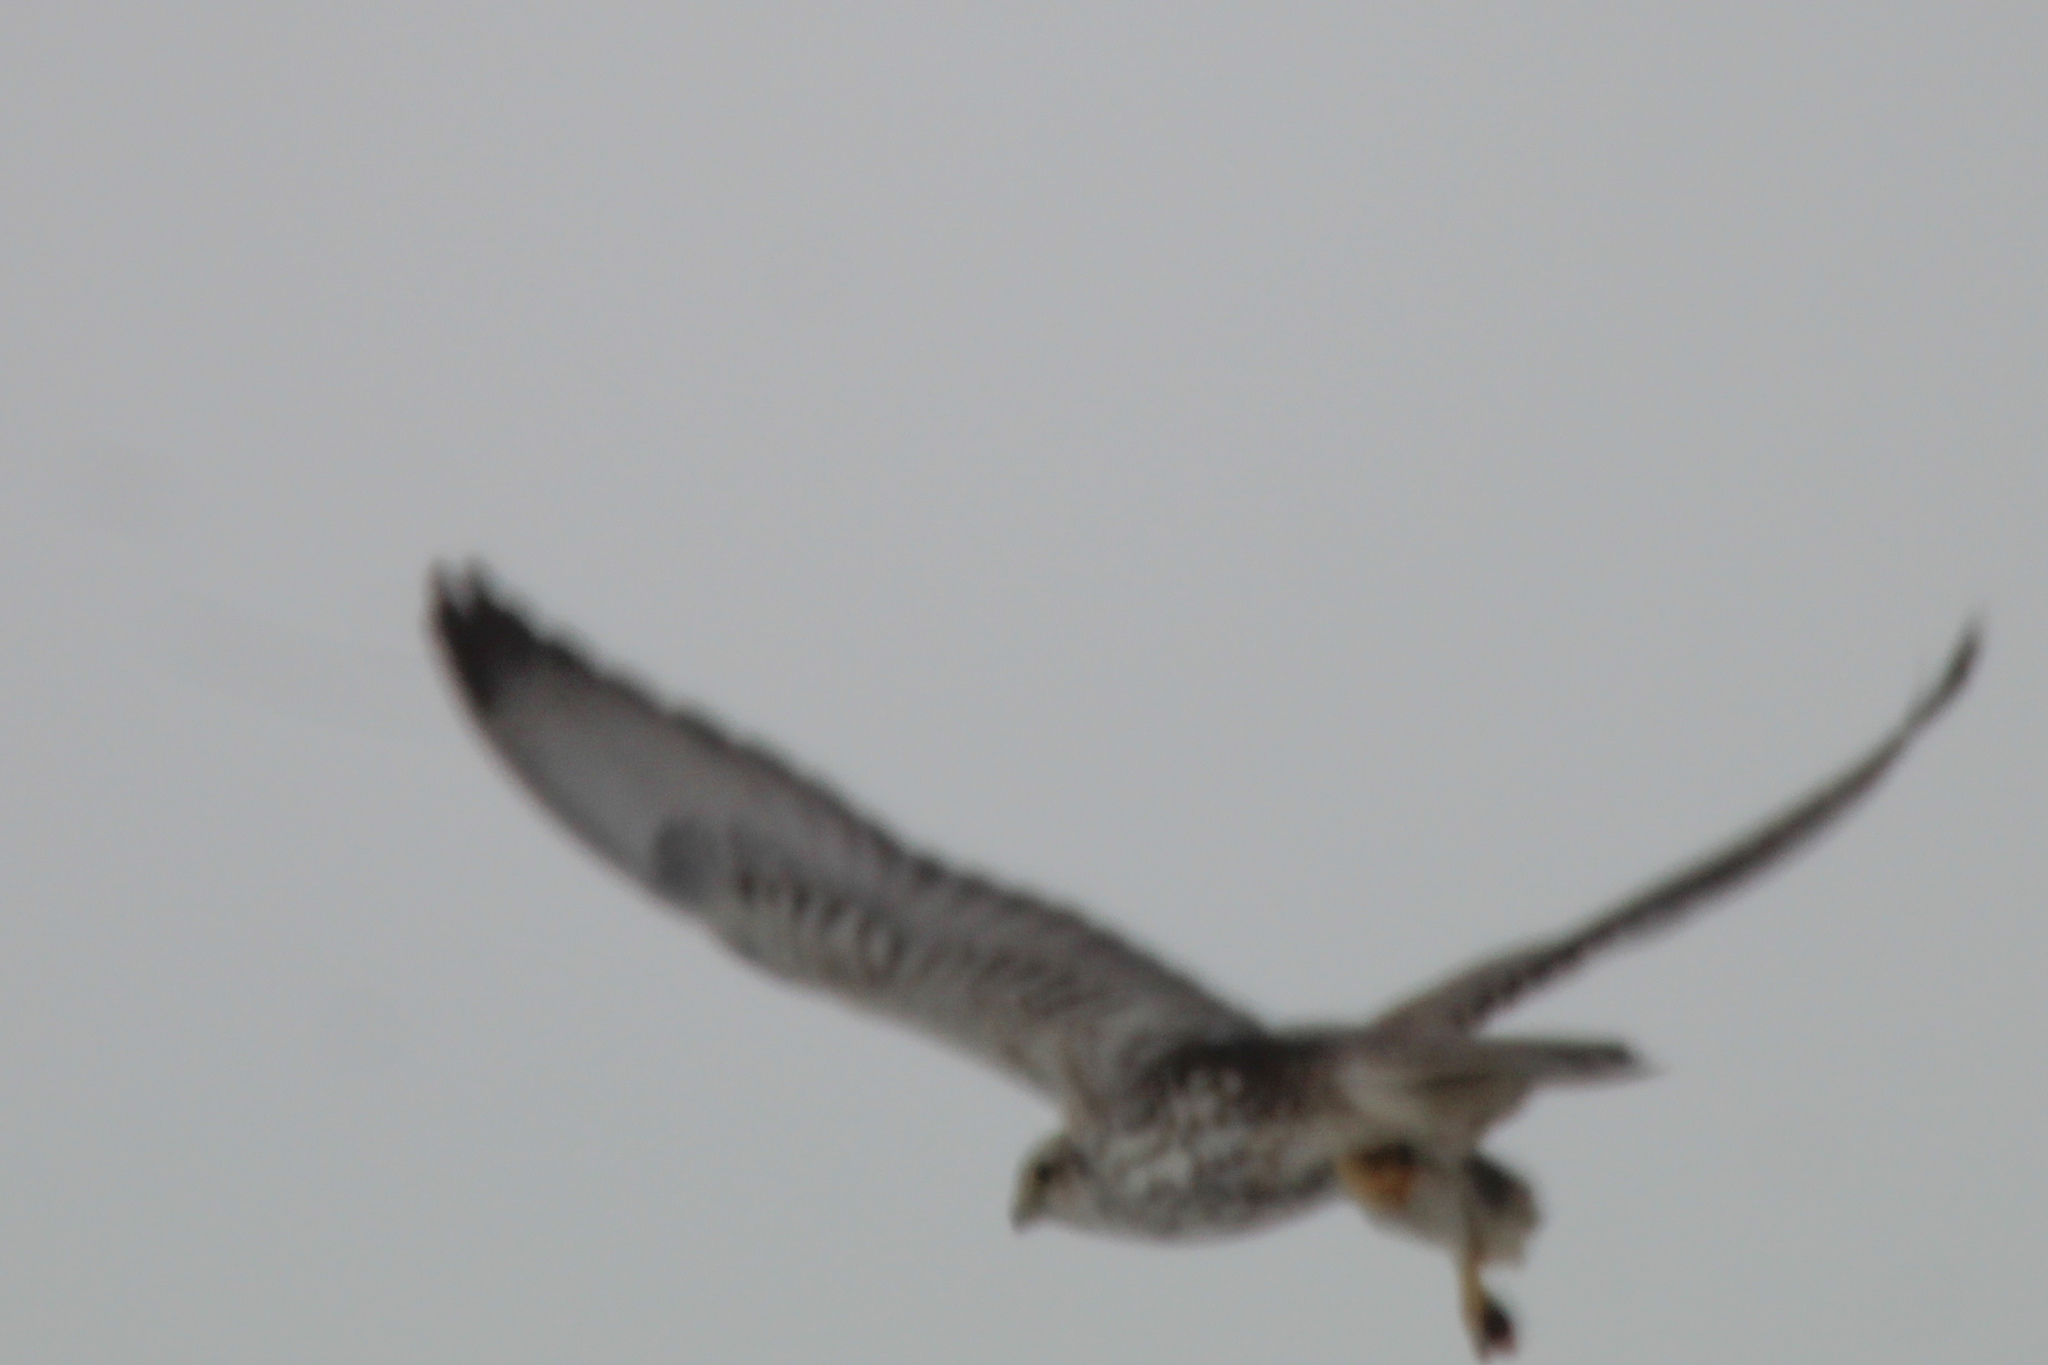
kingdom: Animalia
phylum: Chordata
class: Aves
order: Falconiformes
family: Falconidae
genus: Falco
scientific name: Falco cherrug
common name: Saker falcon
